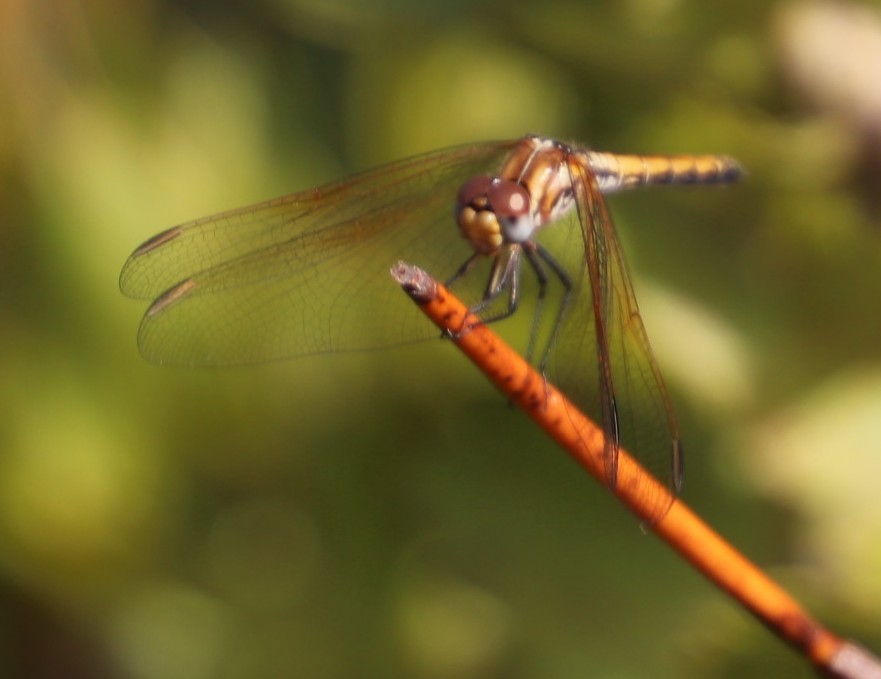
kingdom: Animalia
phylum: Arthropoda
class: Insecta
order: Odonata
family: Libellulidae
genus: Trithemis
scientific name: Trithemis arteriosa
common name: Red-veined dropwing
